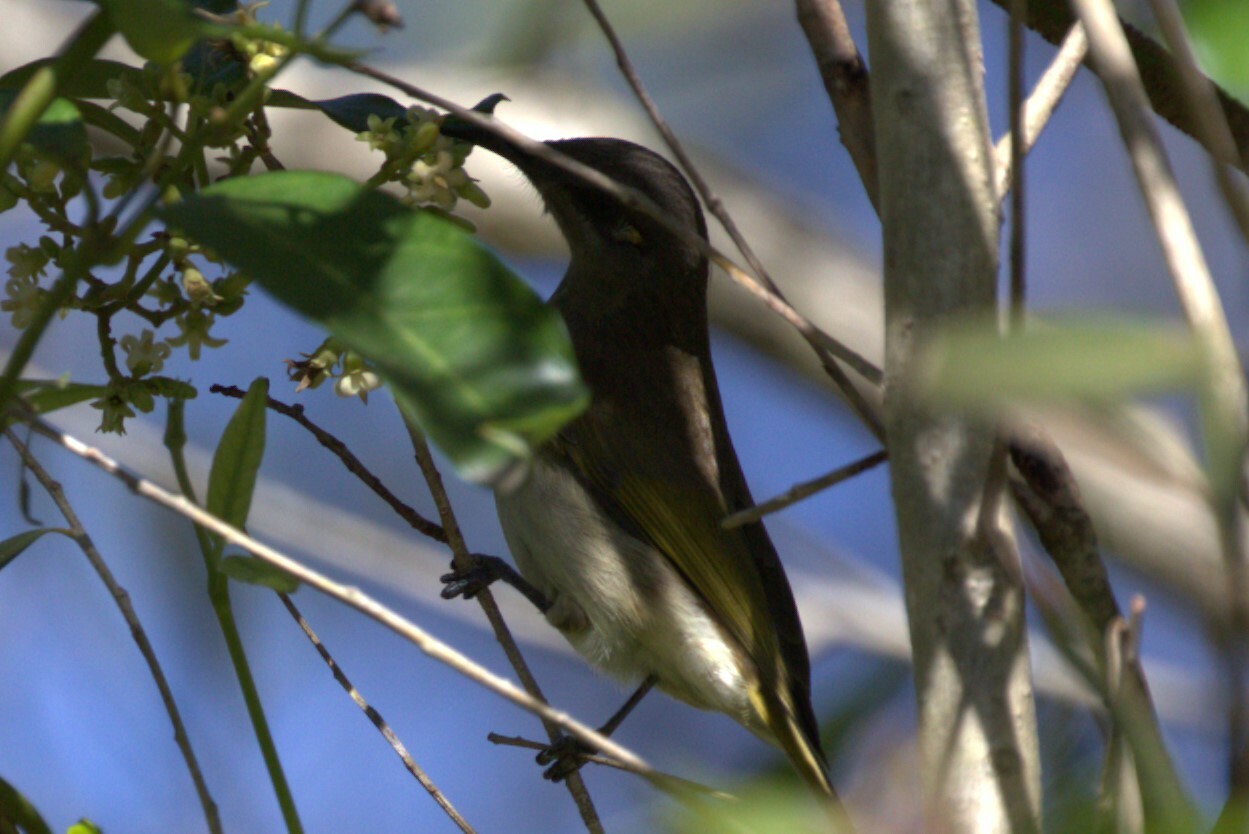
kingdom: Animalia
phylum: Chordata
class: Aves
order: Passeriformes
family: Meliphagidae
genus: Lichmera
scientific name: Lichmera indistincta
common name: Brown honeyeater
